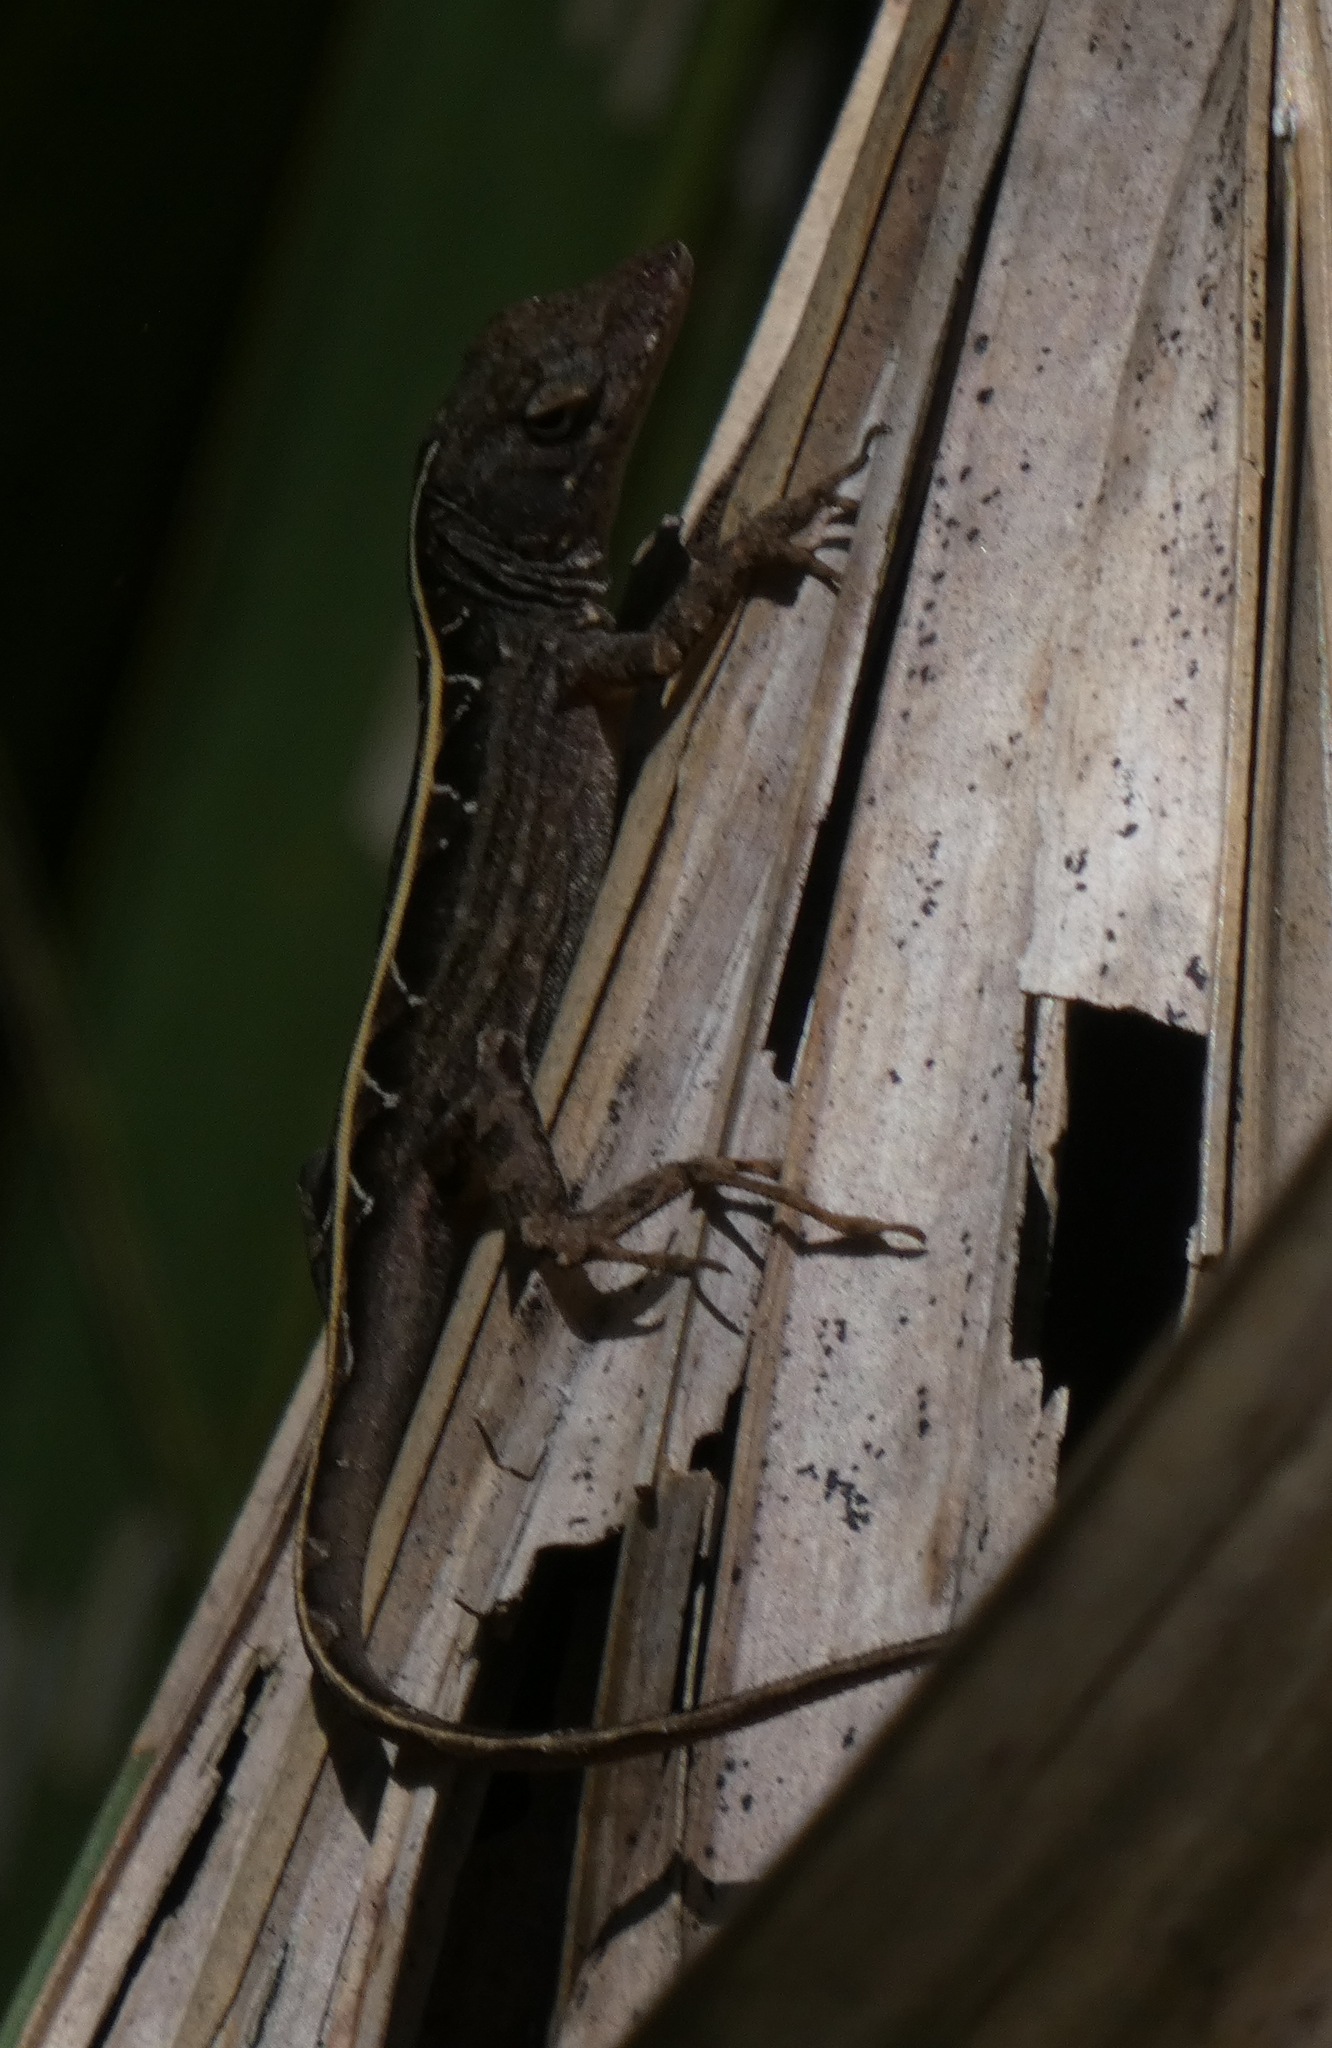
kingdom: Animalia
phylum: Chordata
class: Squamata
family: Dactyloidae
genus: Anolis
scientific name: Anolis sagrei
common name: Brown anole
